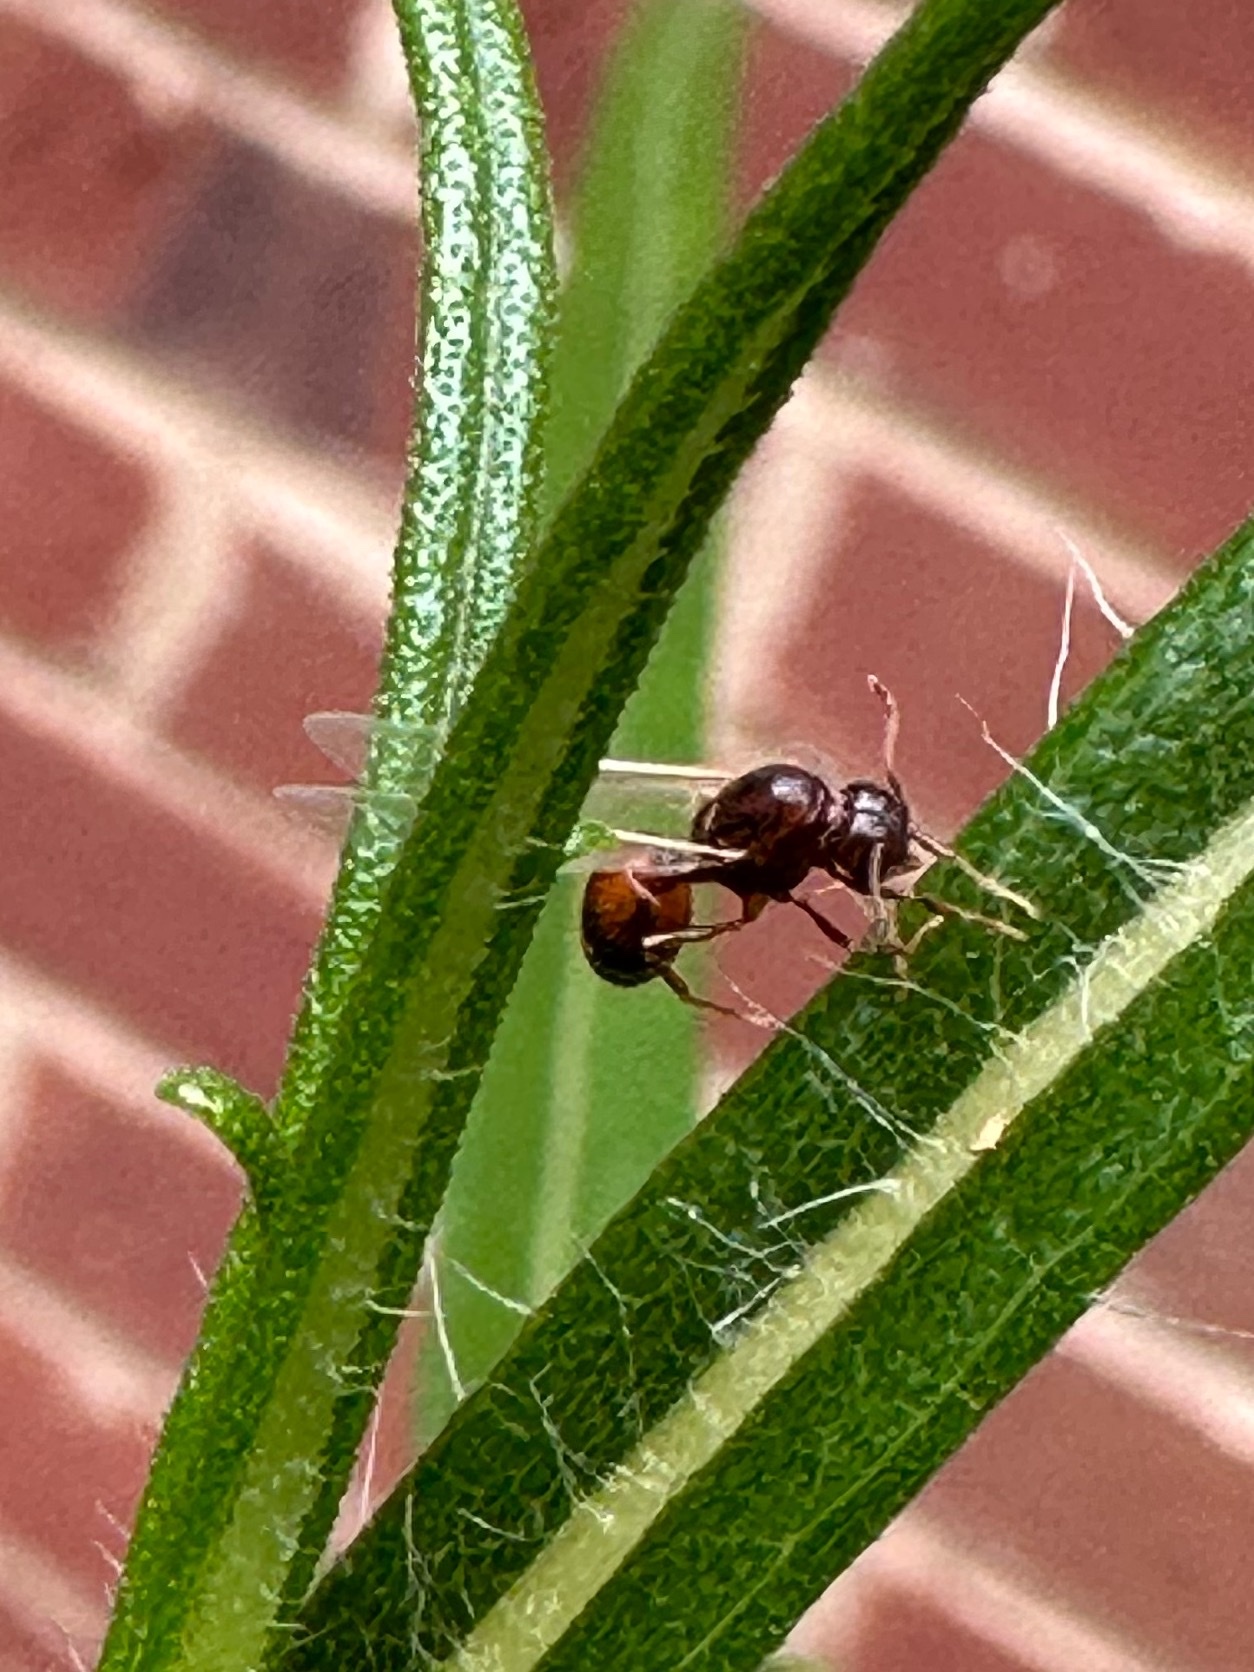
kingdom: Animalia
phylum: Arthropoda
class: Insecta
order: Hymenoptera
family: Formicidae
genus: Solenopsis
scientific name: Solenopsis
